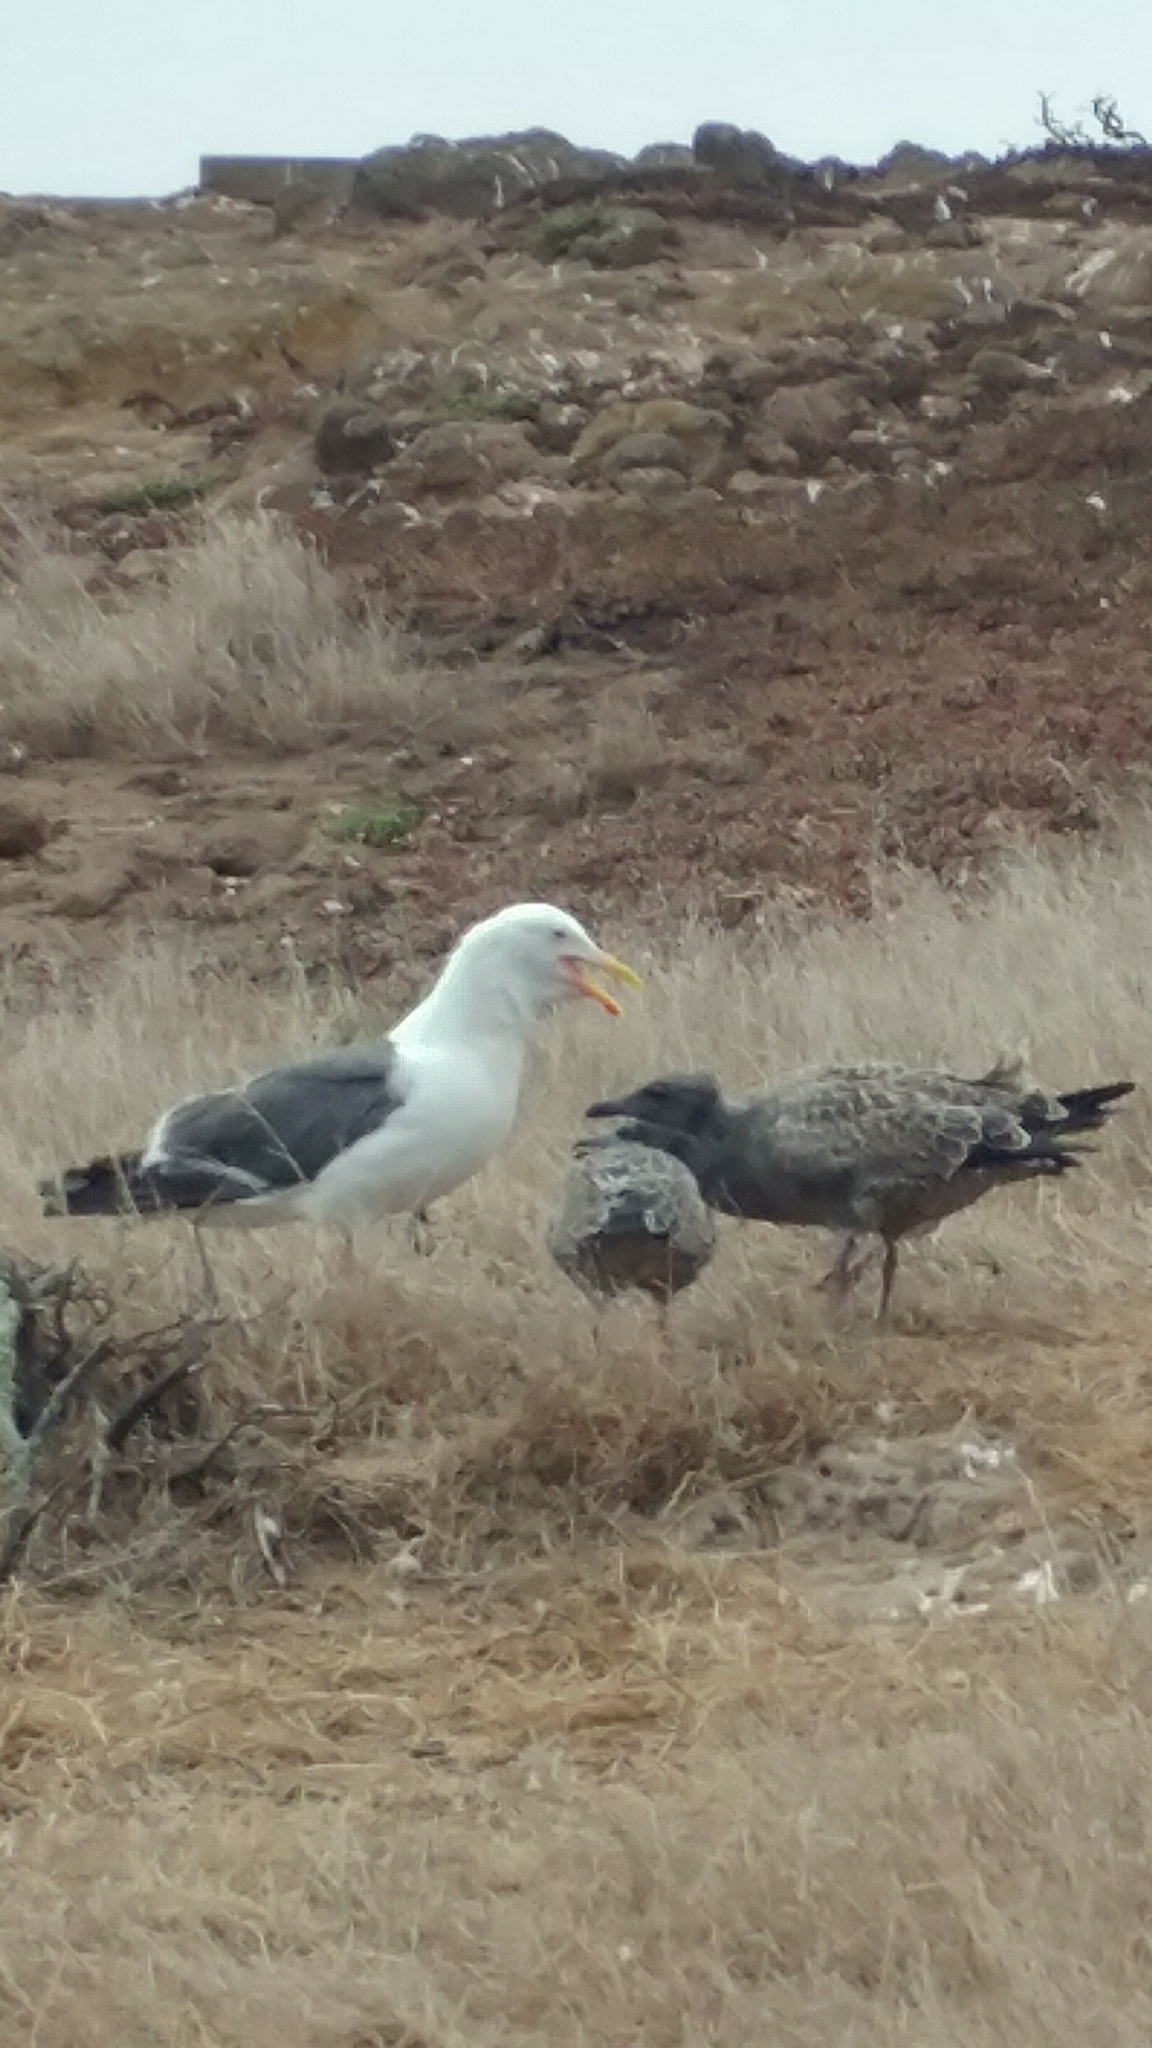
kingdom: Animalia
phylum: Chordata
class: Aves
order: Charadriiformes
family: Laridae
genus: Larus
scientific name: Larus occidentalis
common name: Western gull
